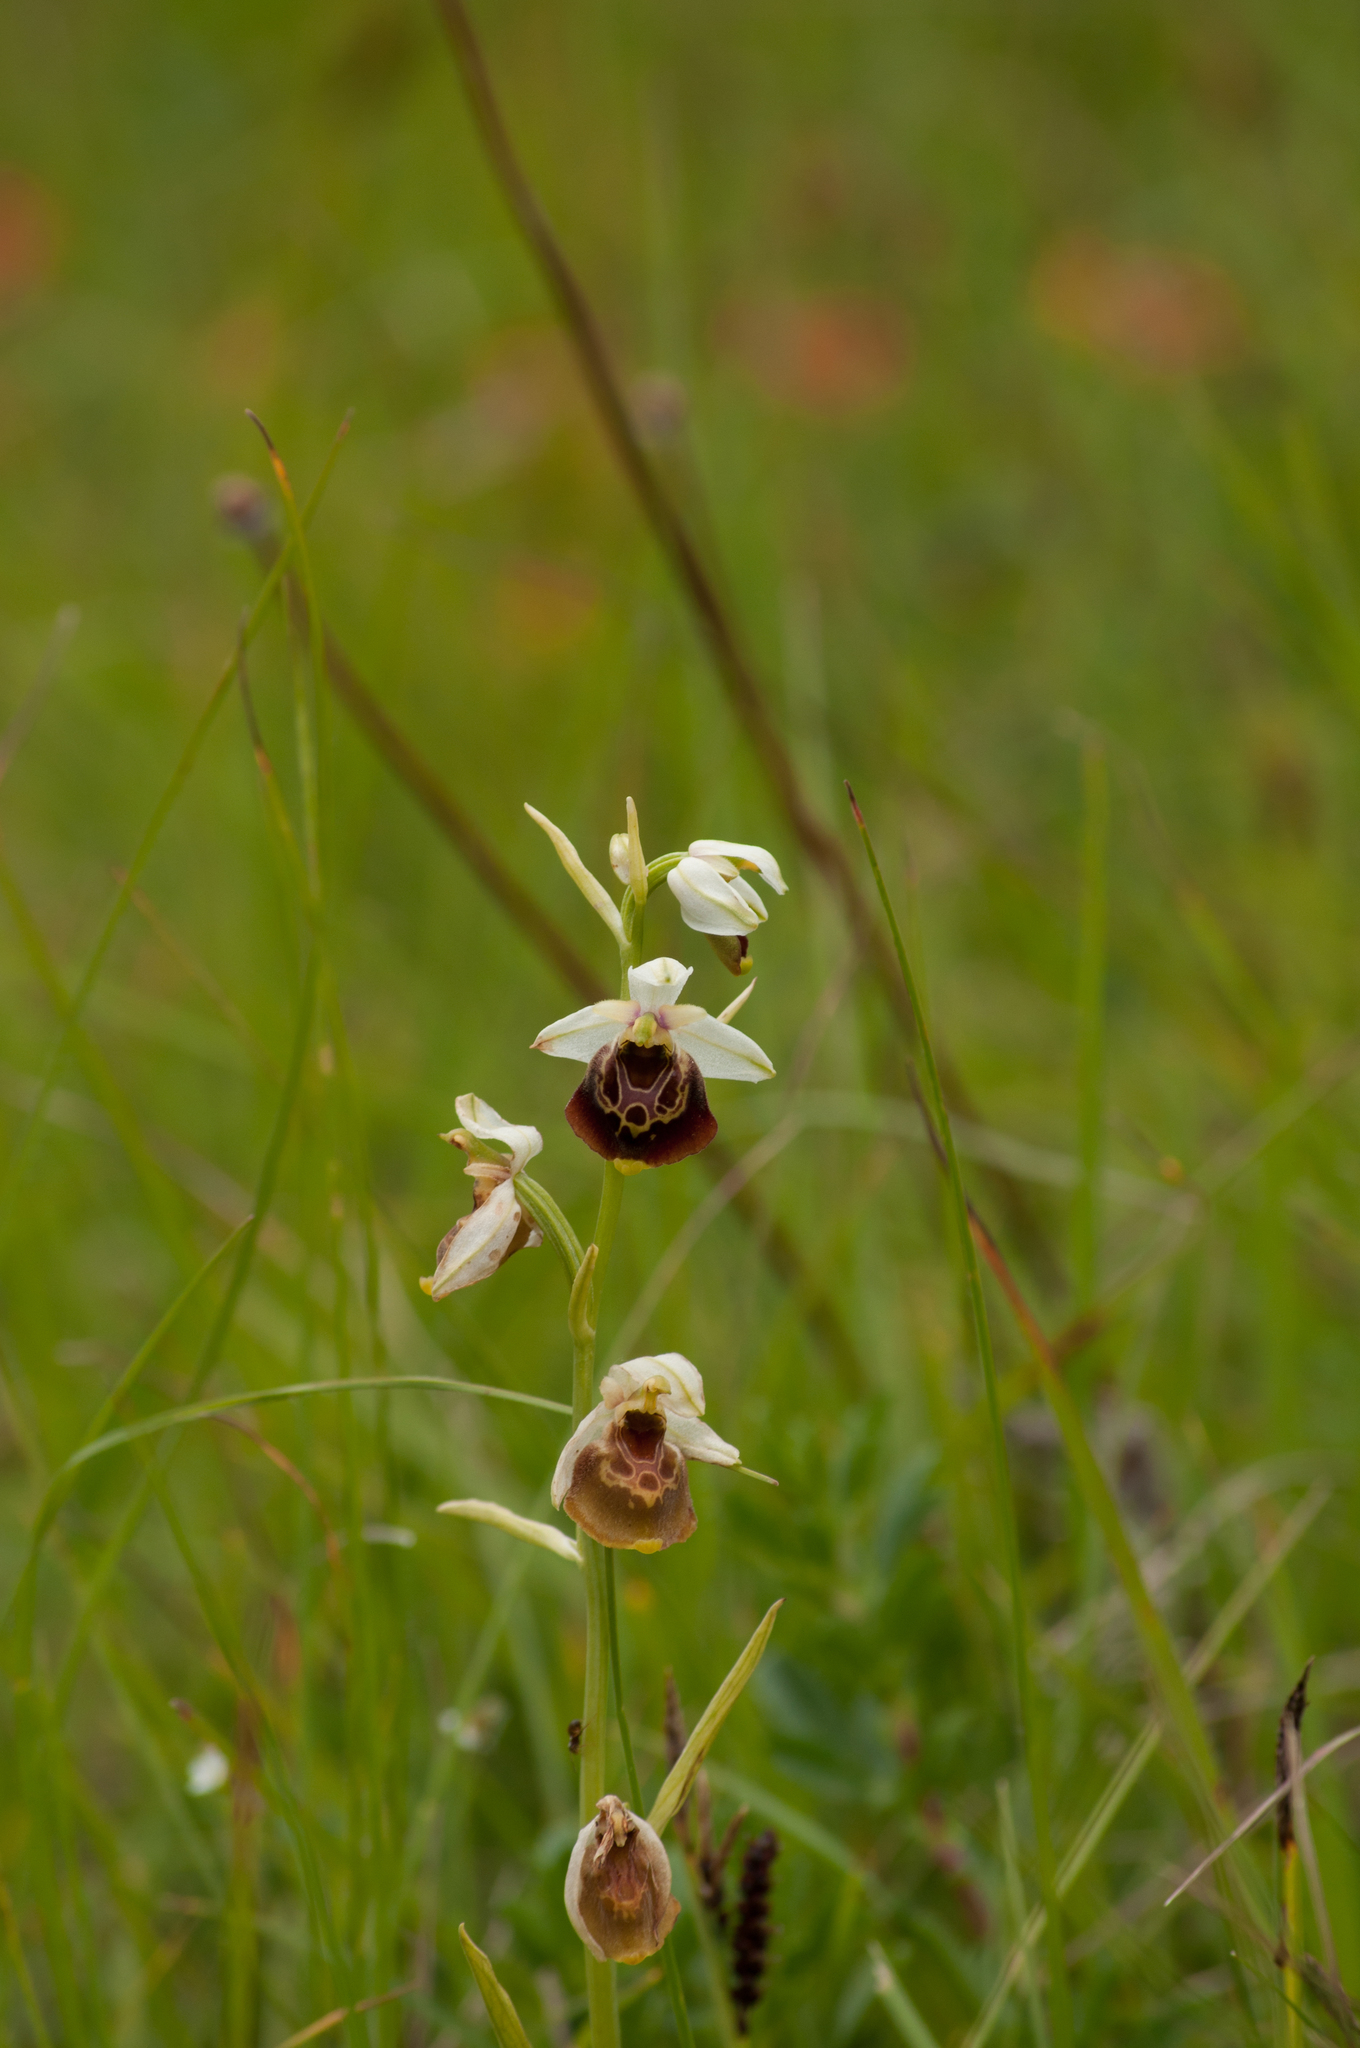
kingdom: Plantae
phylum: Tracheophyta
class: Liliopsida
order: Asparagales
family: Orchidaceae
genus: Ophrys
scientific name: Ophrys holosericea
